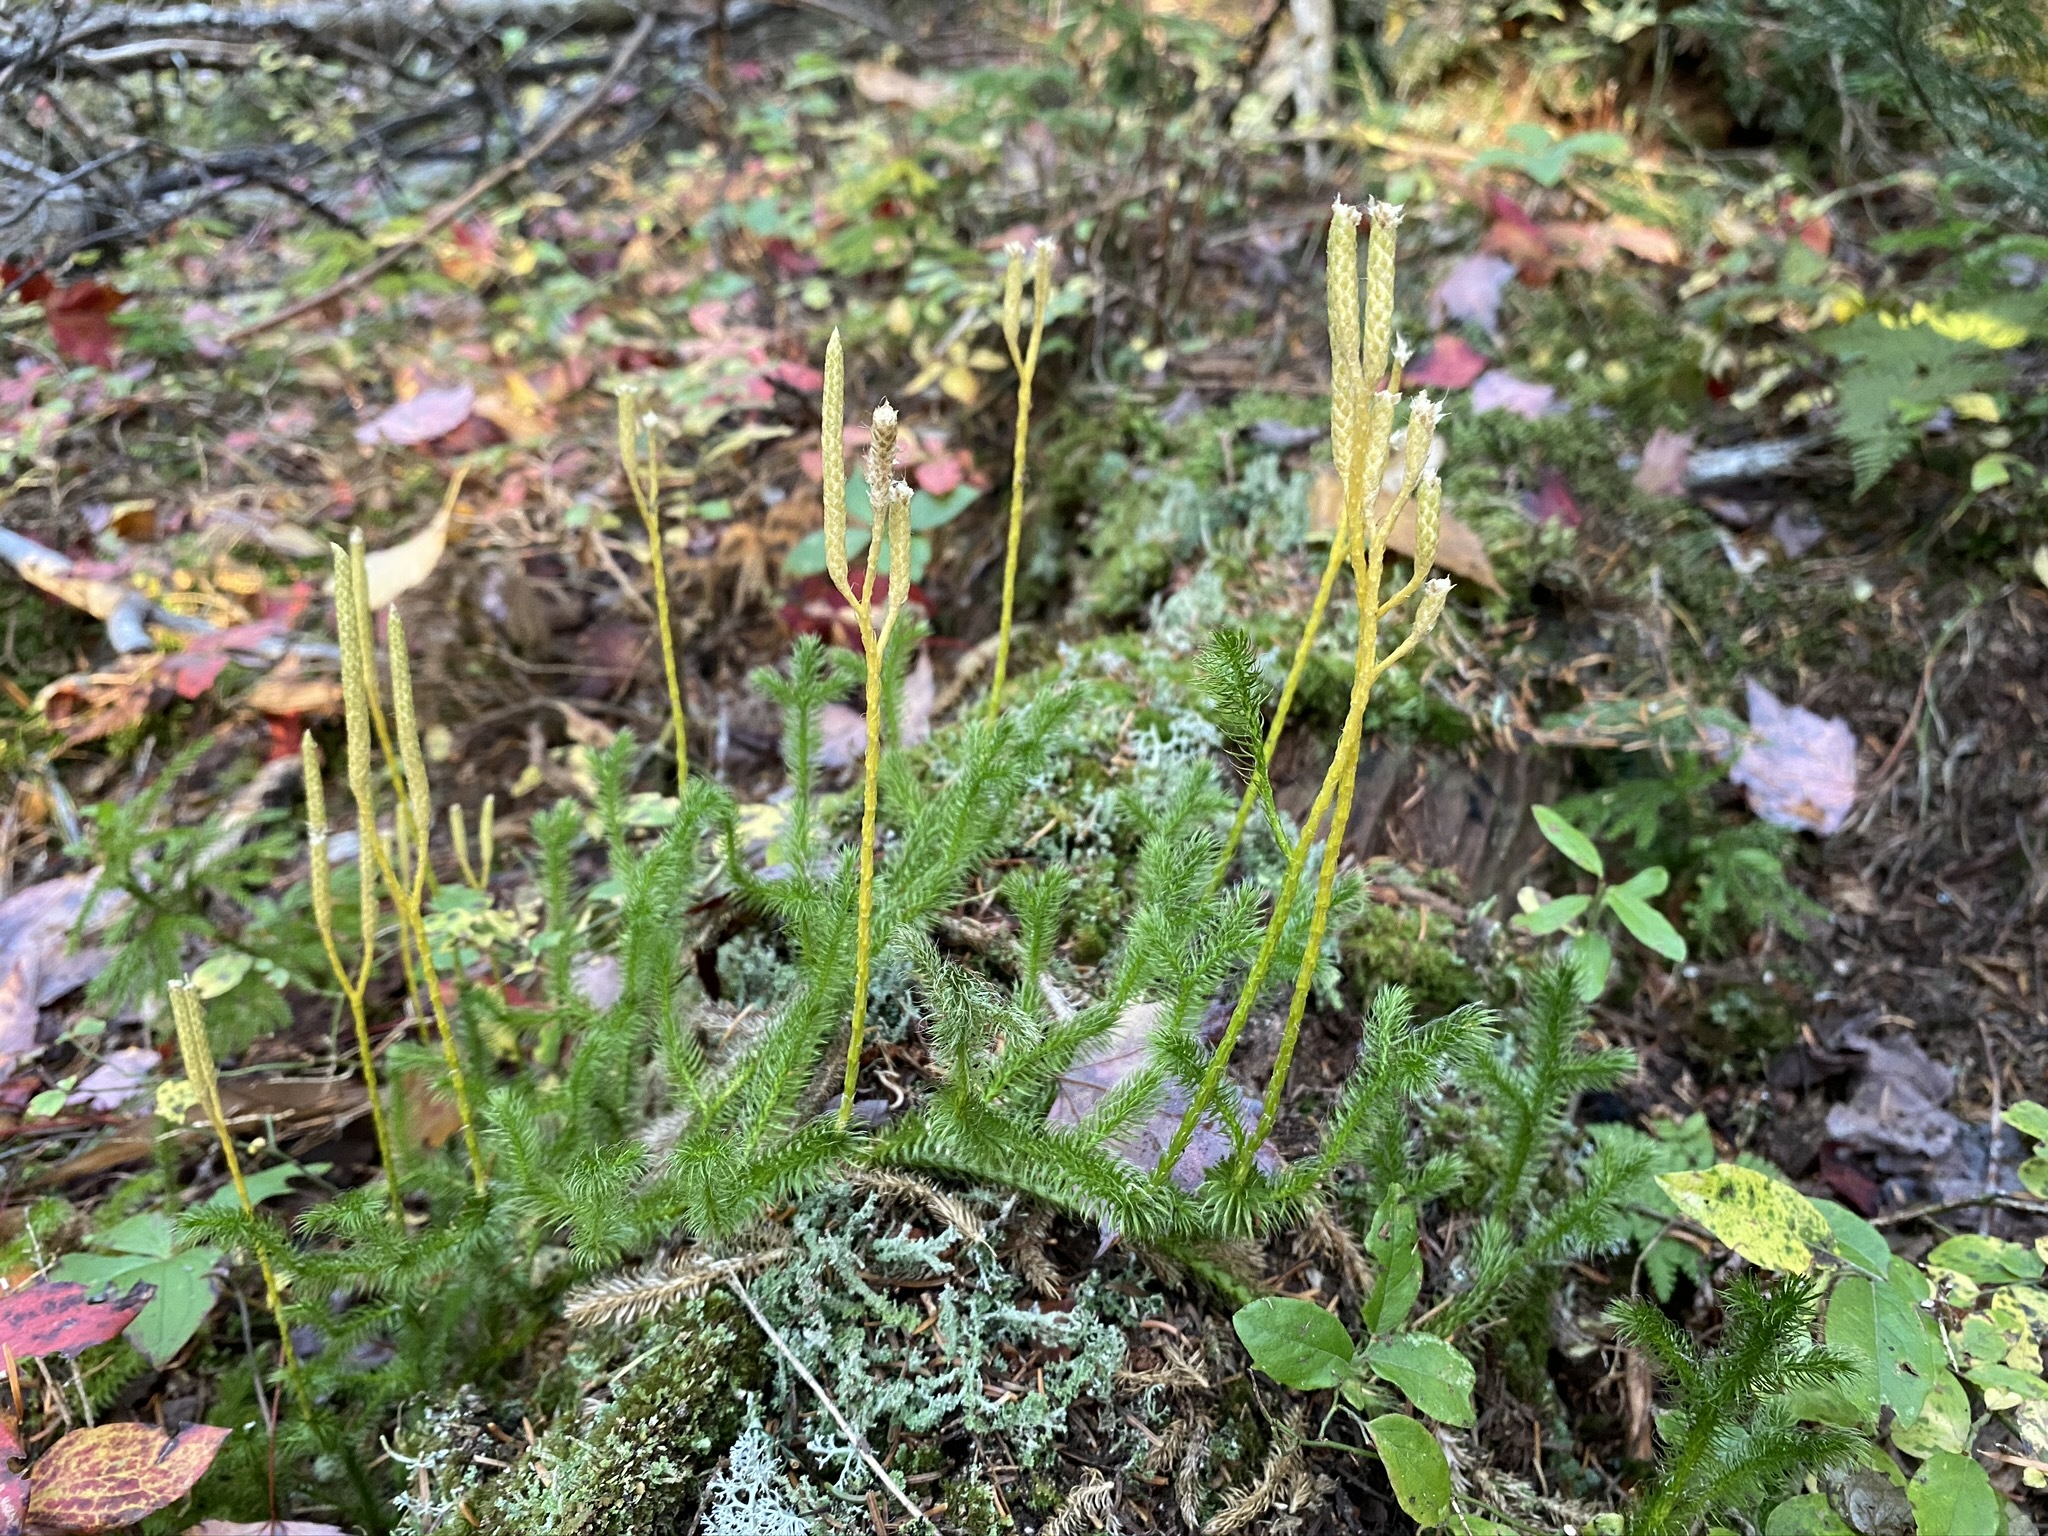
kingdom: Plantae
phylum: Tracheophyta
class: Lycopodiopsida
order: Lycopodiales
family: Lycopodiaceae
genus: Lycopodium
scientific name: Lycopodium clavatum
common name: Stag's-horn clubmoss
